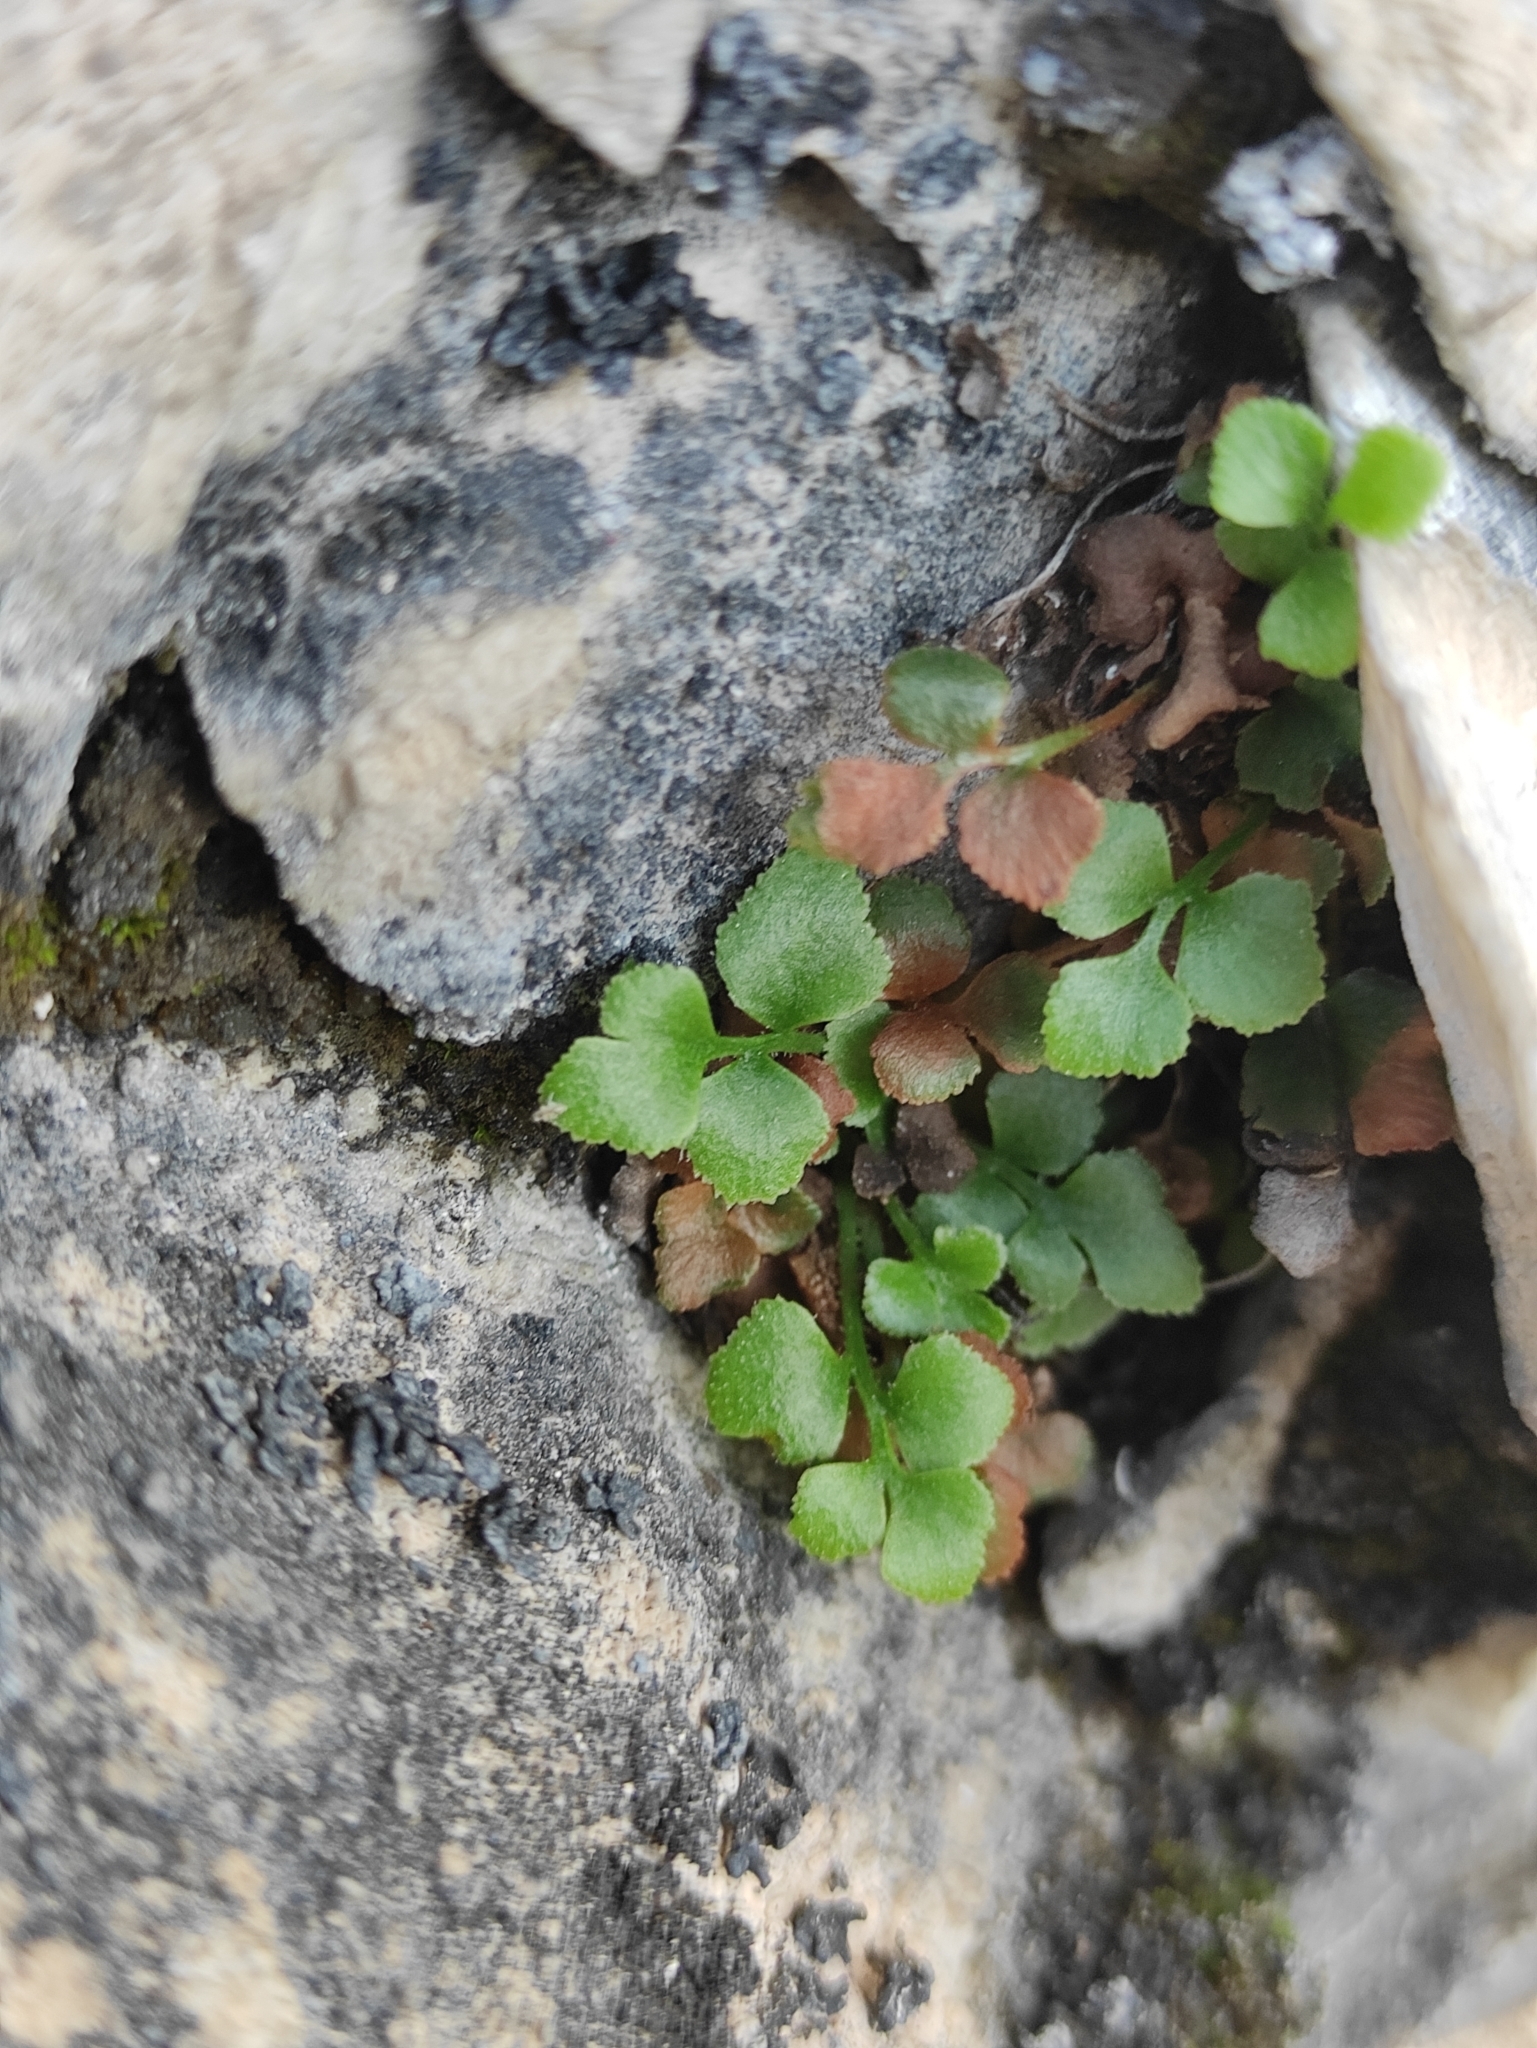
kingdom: Plantae
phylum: Tracheophyta
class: Polypodiopsida
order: Polypodiales
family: Aspleniaceae
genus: Asplenium
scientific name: Asplenium ruta-muraria
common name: Wall-rue
